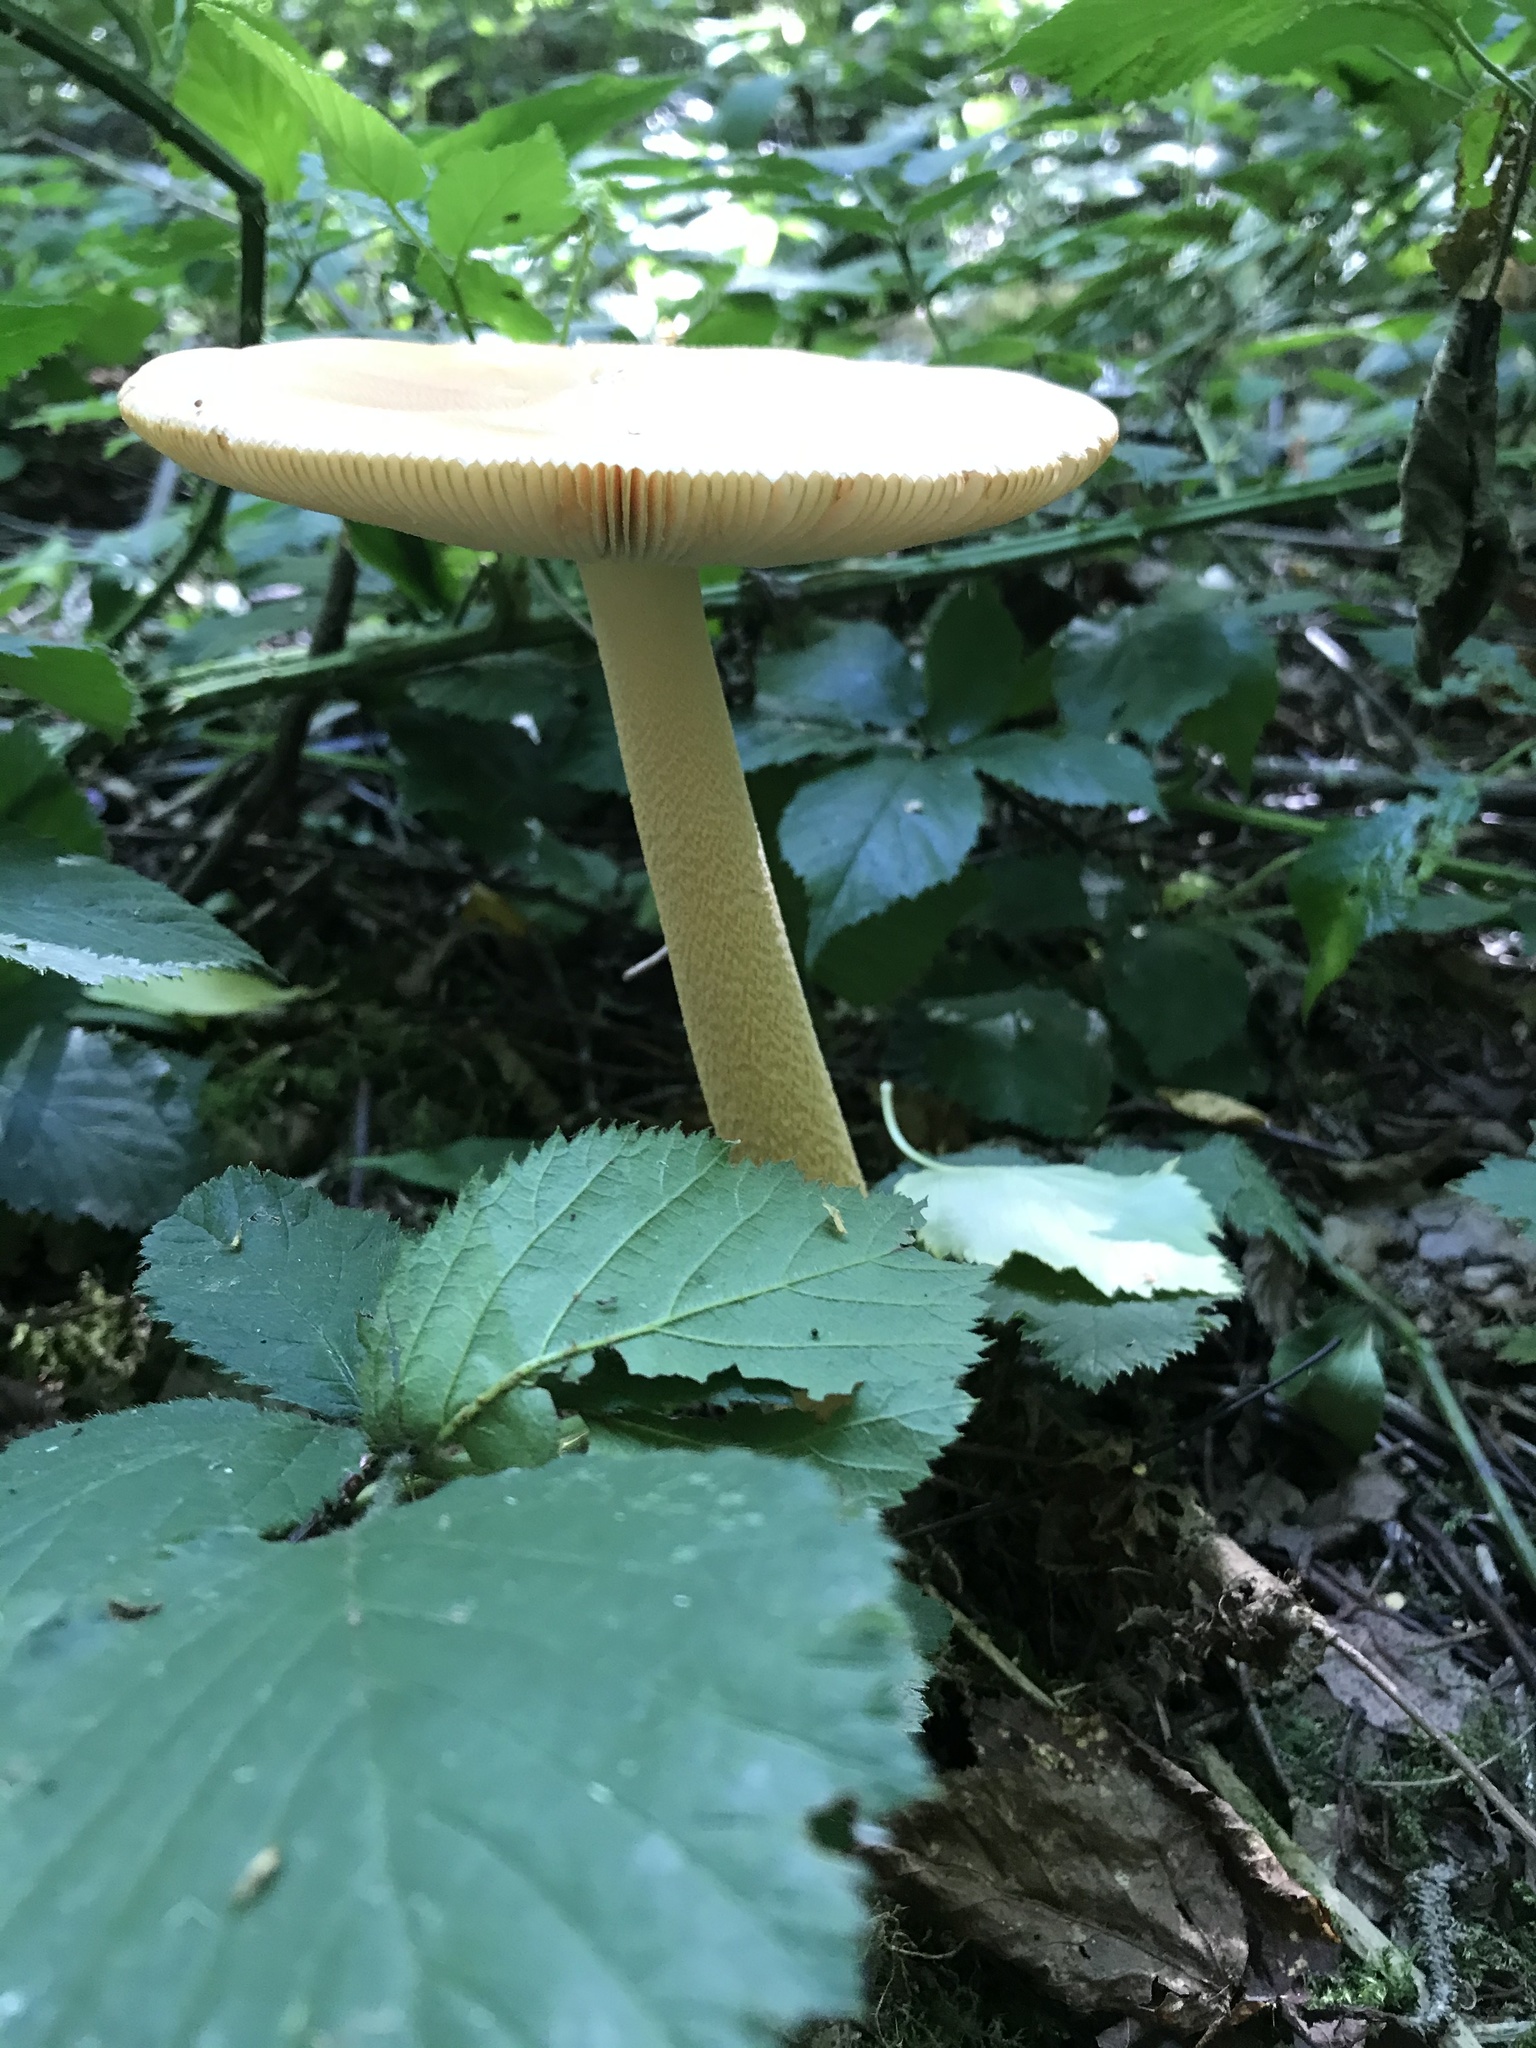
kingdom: Fungi
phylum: Basidiomycota
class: Agaricomycetes
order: Agaricales
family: Amanitaceae
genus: Amanita
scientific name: Amanita crocea
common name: Orange grisette
